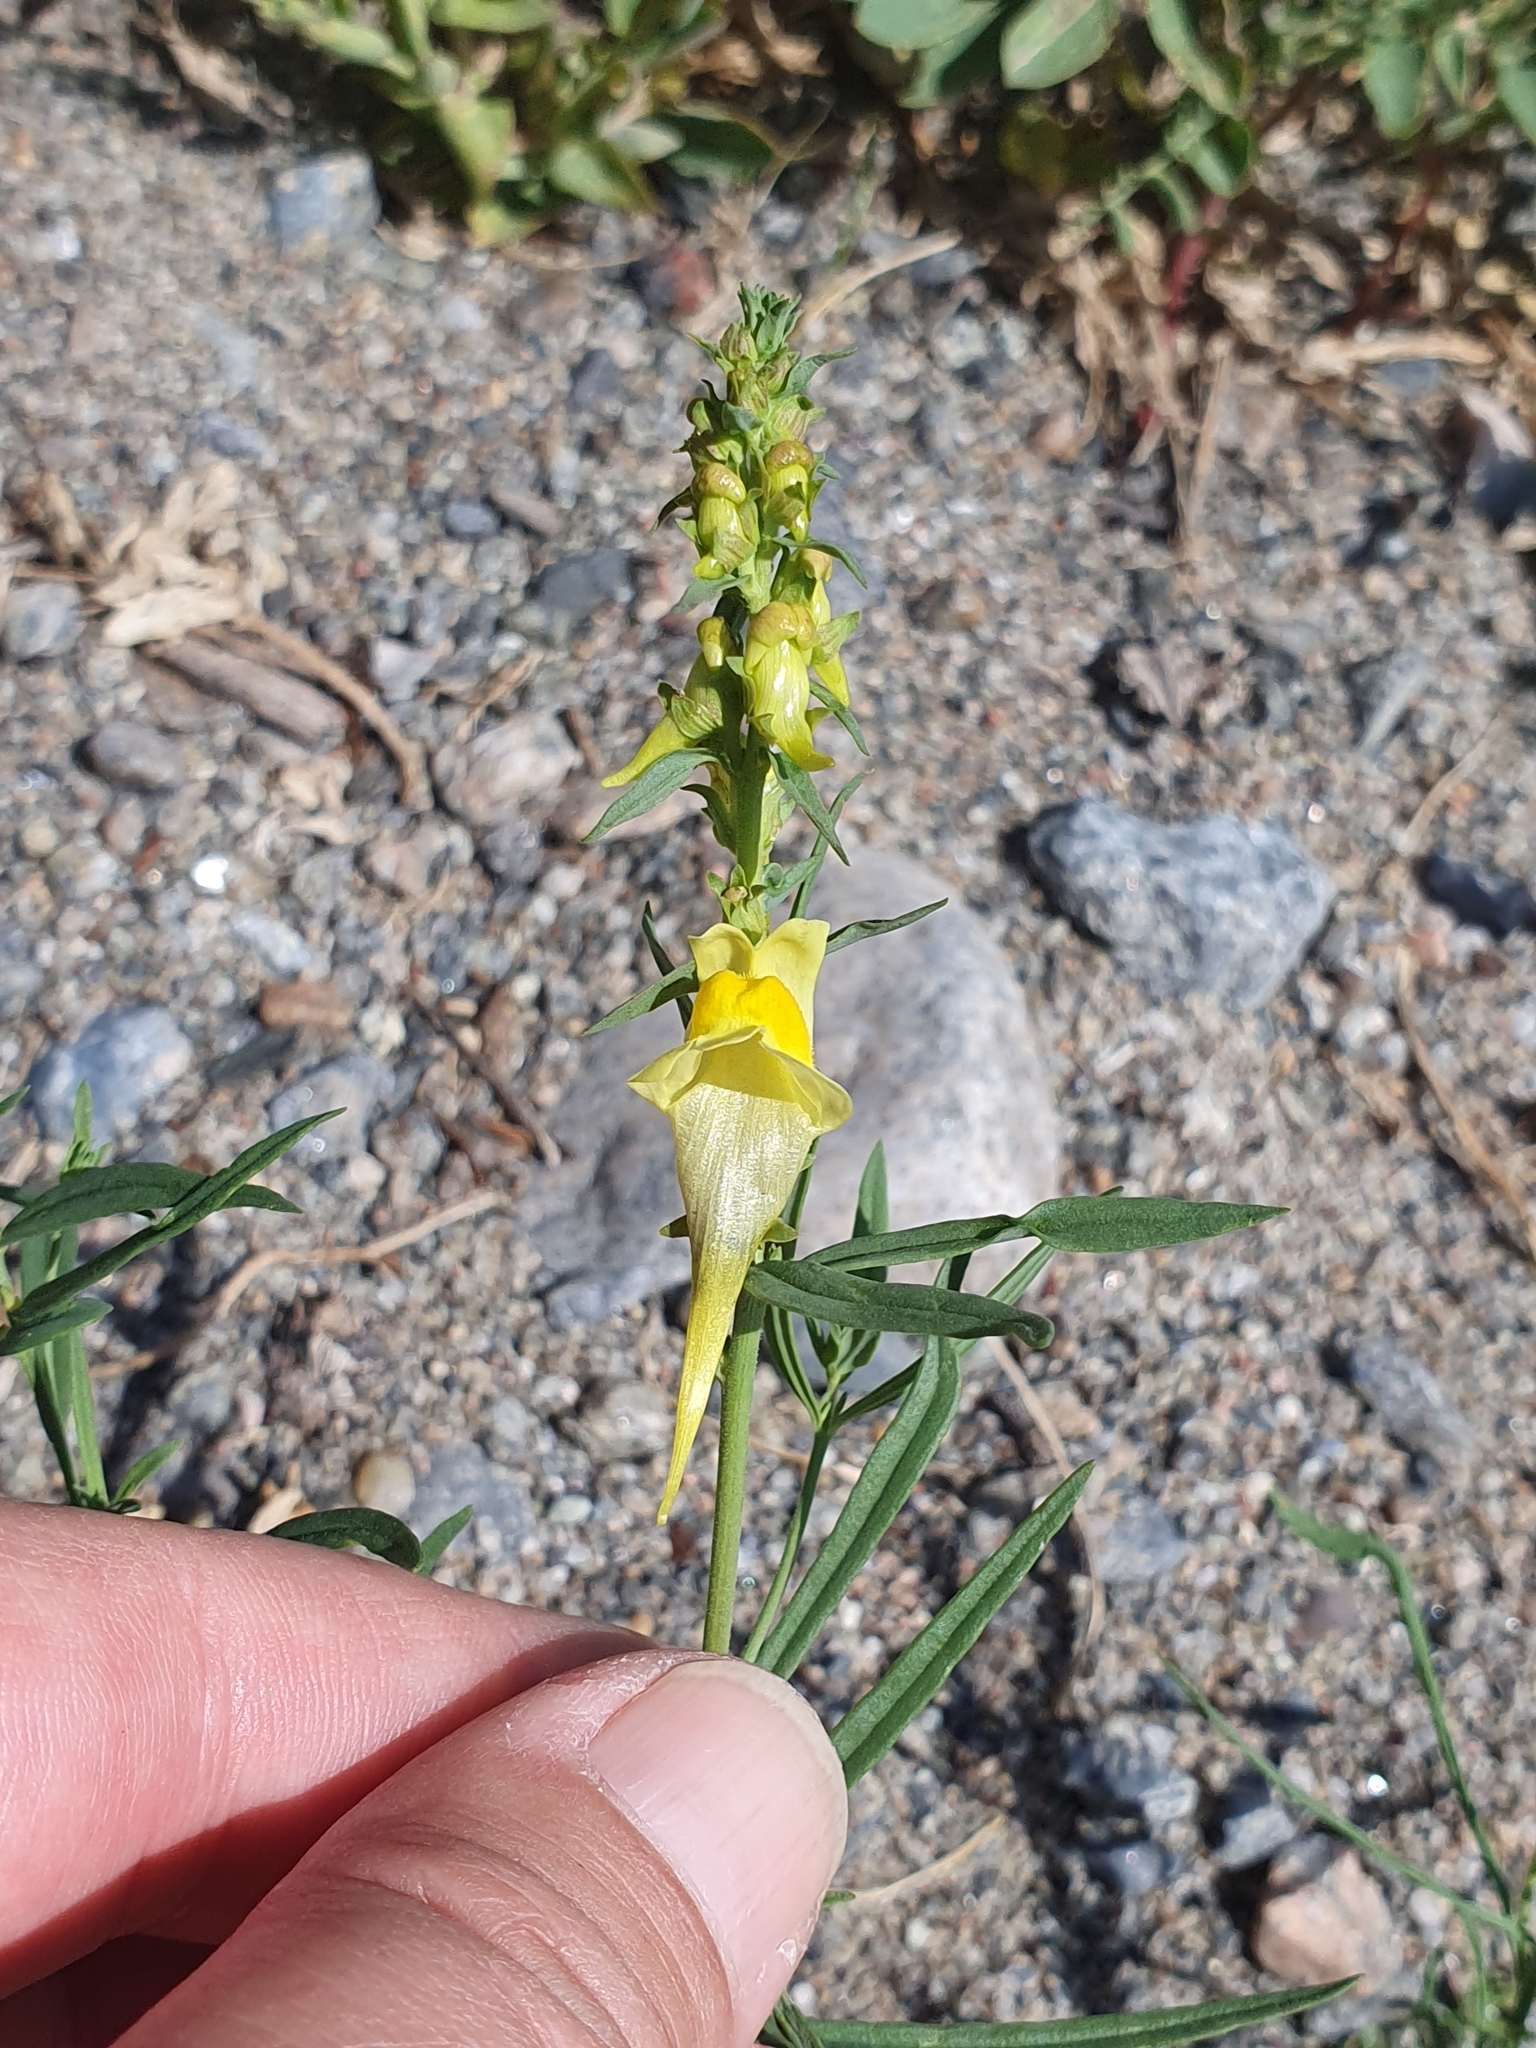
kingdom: Plantae
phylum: Tracheophyta
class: Magnoliopsida
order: Lamiales
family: Plantaginaceae
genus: Linaria
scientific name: Linaria vulgaris
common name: Butter and eggs
